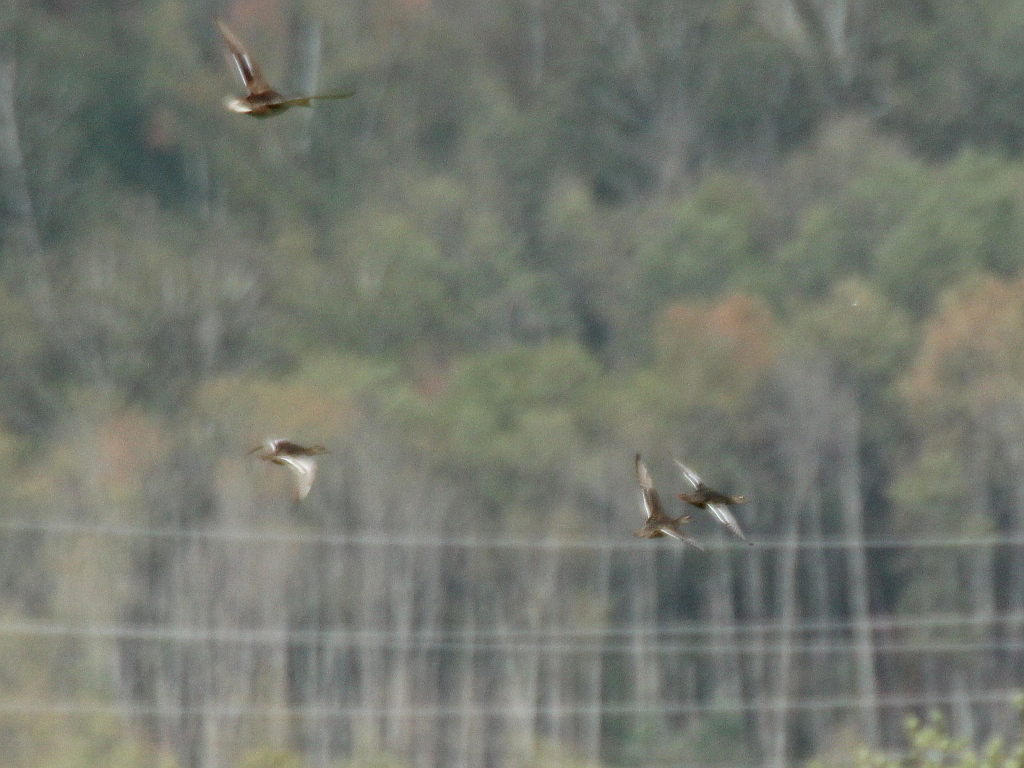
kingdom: Animalia
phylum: Chordata
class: Aves
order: Anseriformes
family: Anatidae
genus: Spatula
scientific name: Spatula querquedula
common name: Garganey
